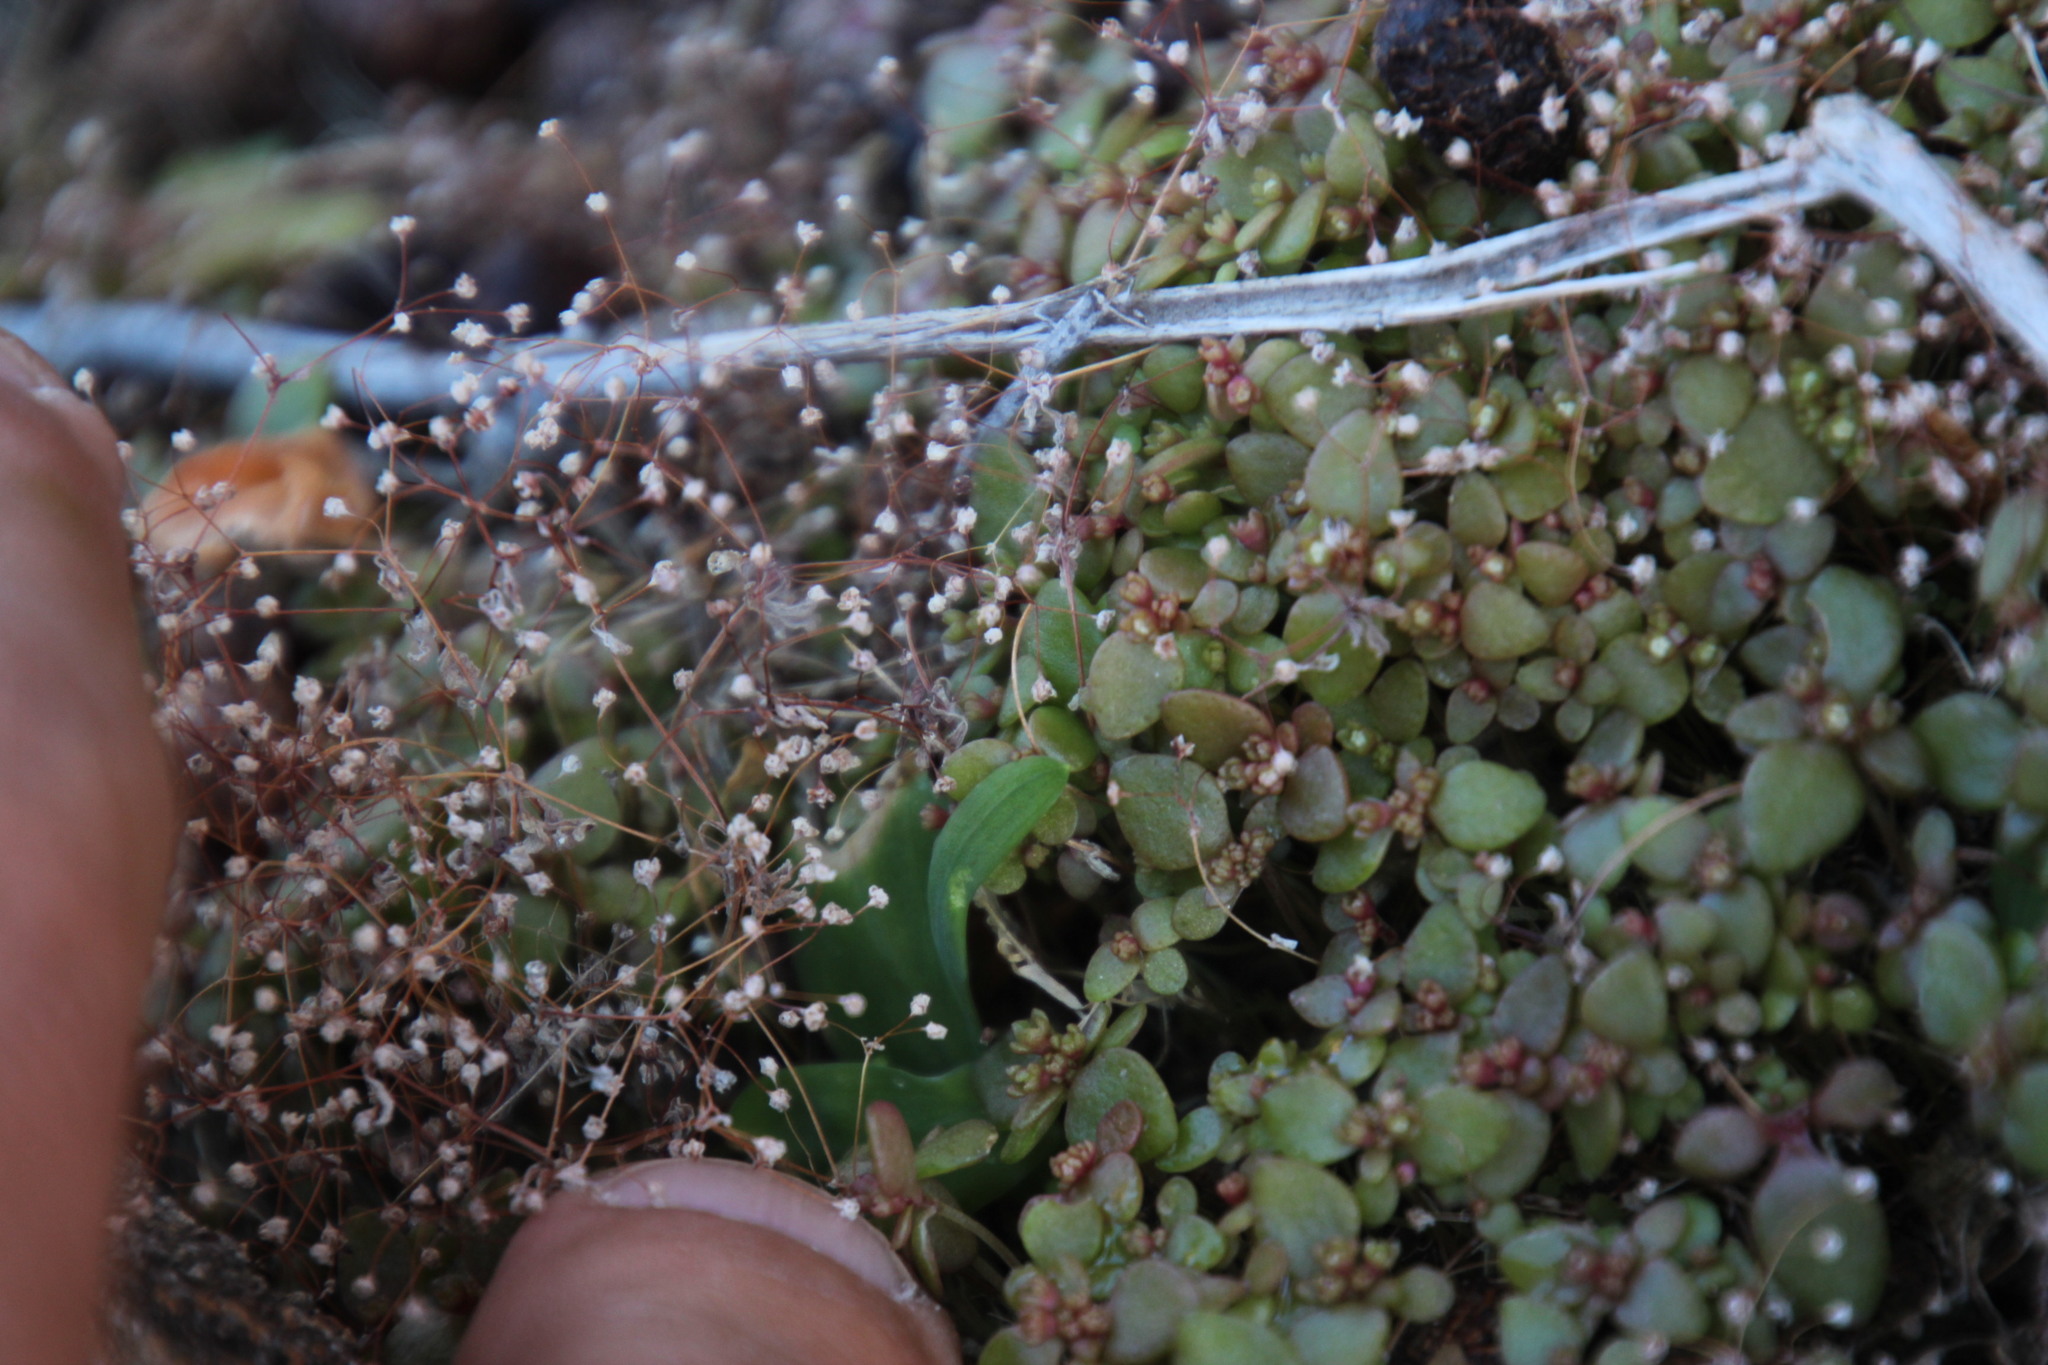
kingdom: Plantae
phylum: Tracheophyta
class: Magnoliopsida
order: Saxifragales
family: Crassulaceae
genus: Crassula
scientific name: Crassula tenuipedicellata
